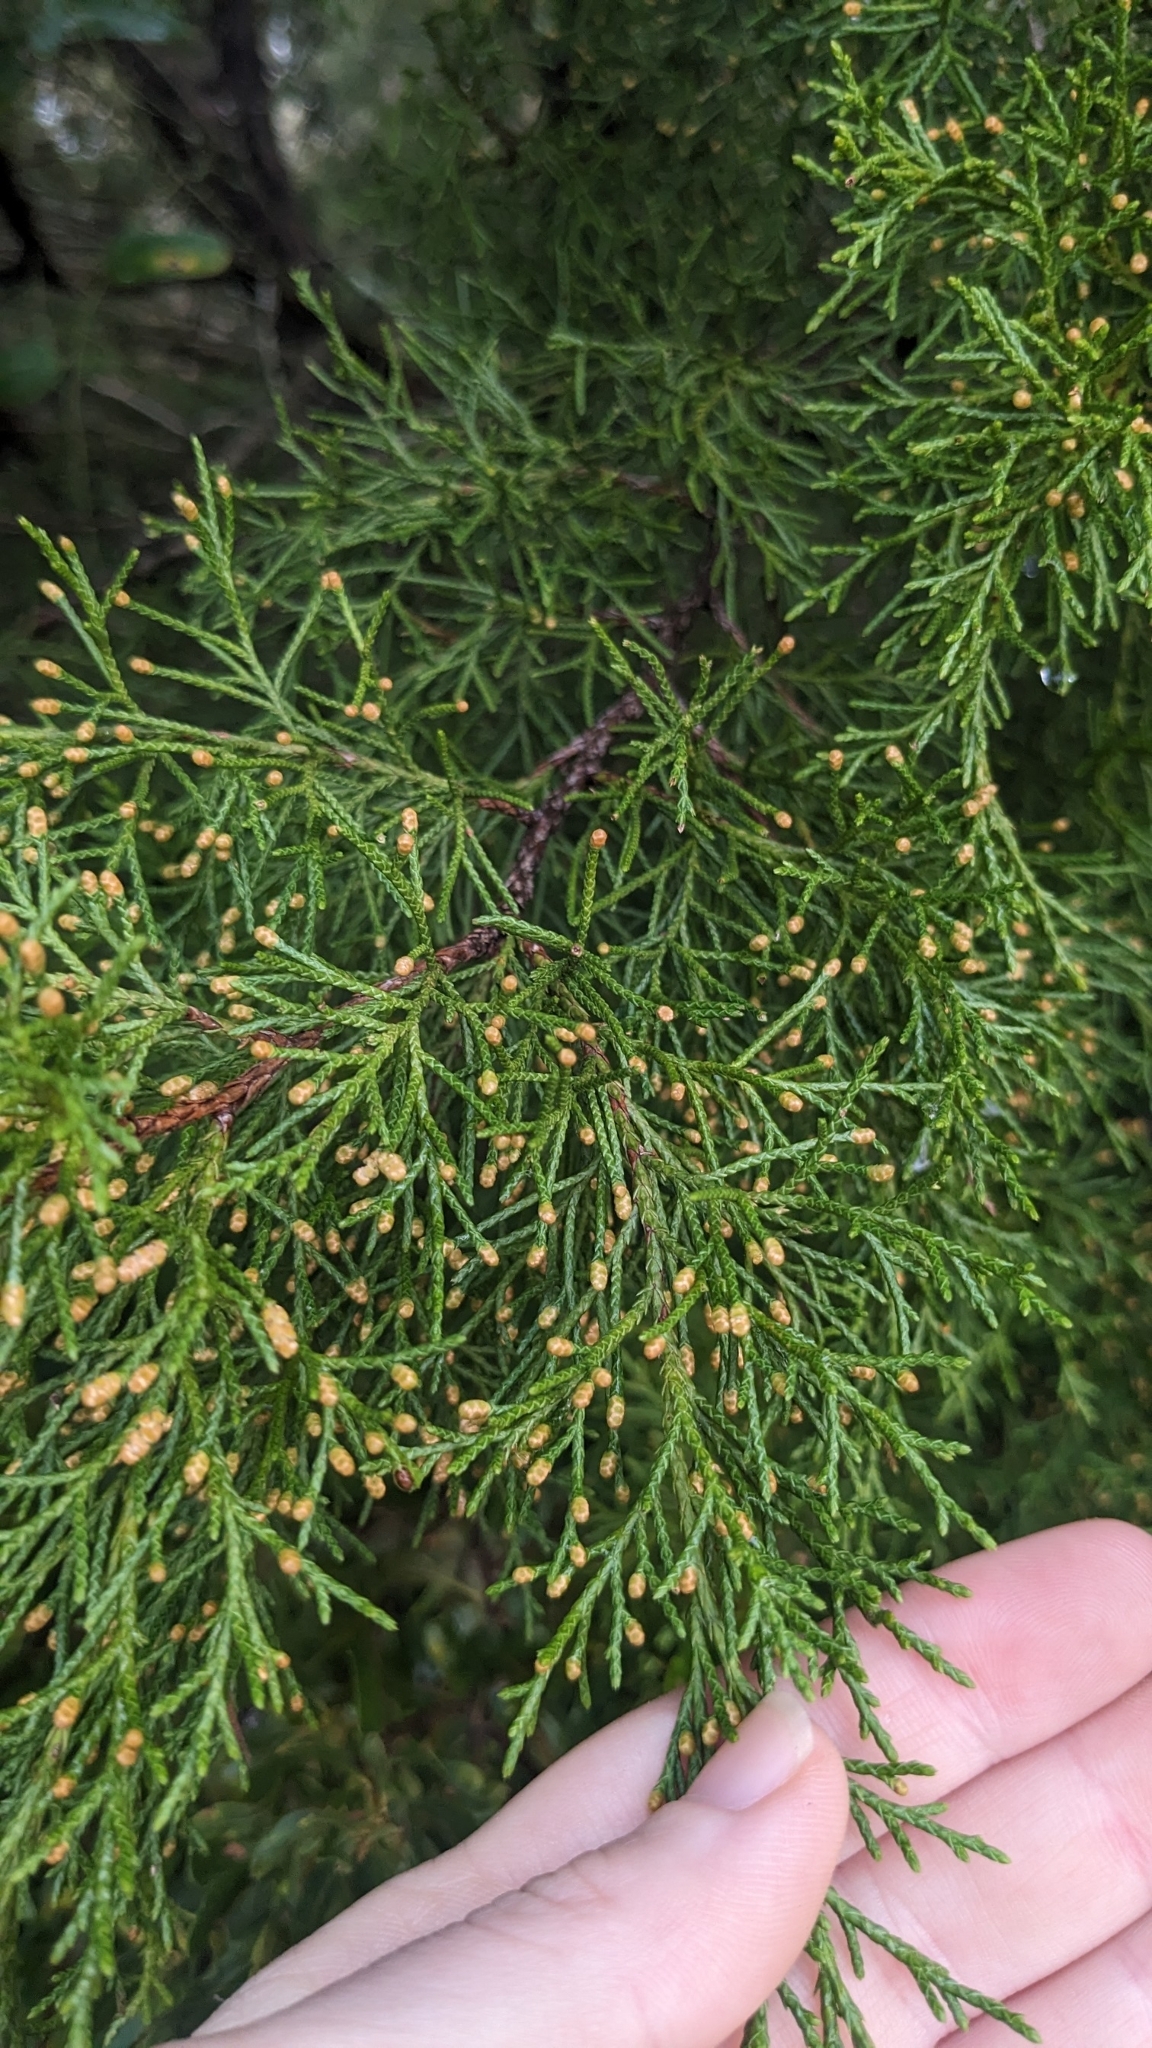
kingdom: Plantae
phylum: Tracheophyta
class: Pinopsida
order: Pinales
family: Cupressaceae
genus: Juniperus
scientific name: Juniperus virginiana
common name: Red juniper
